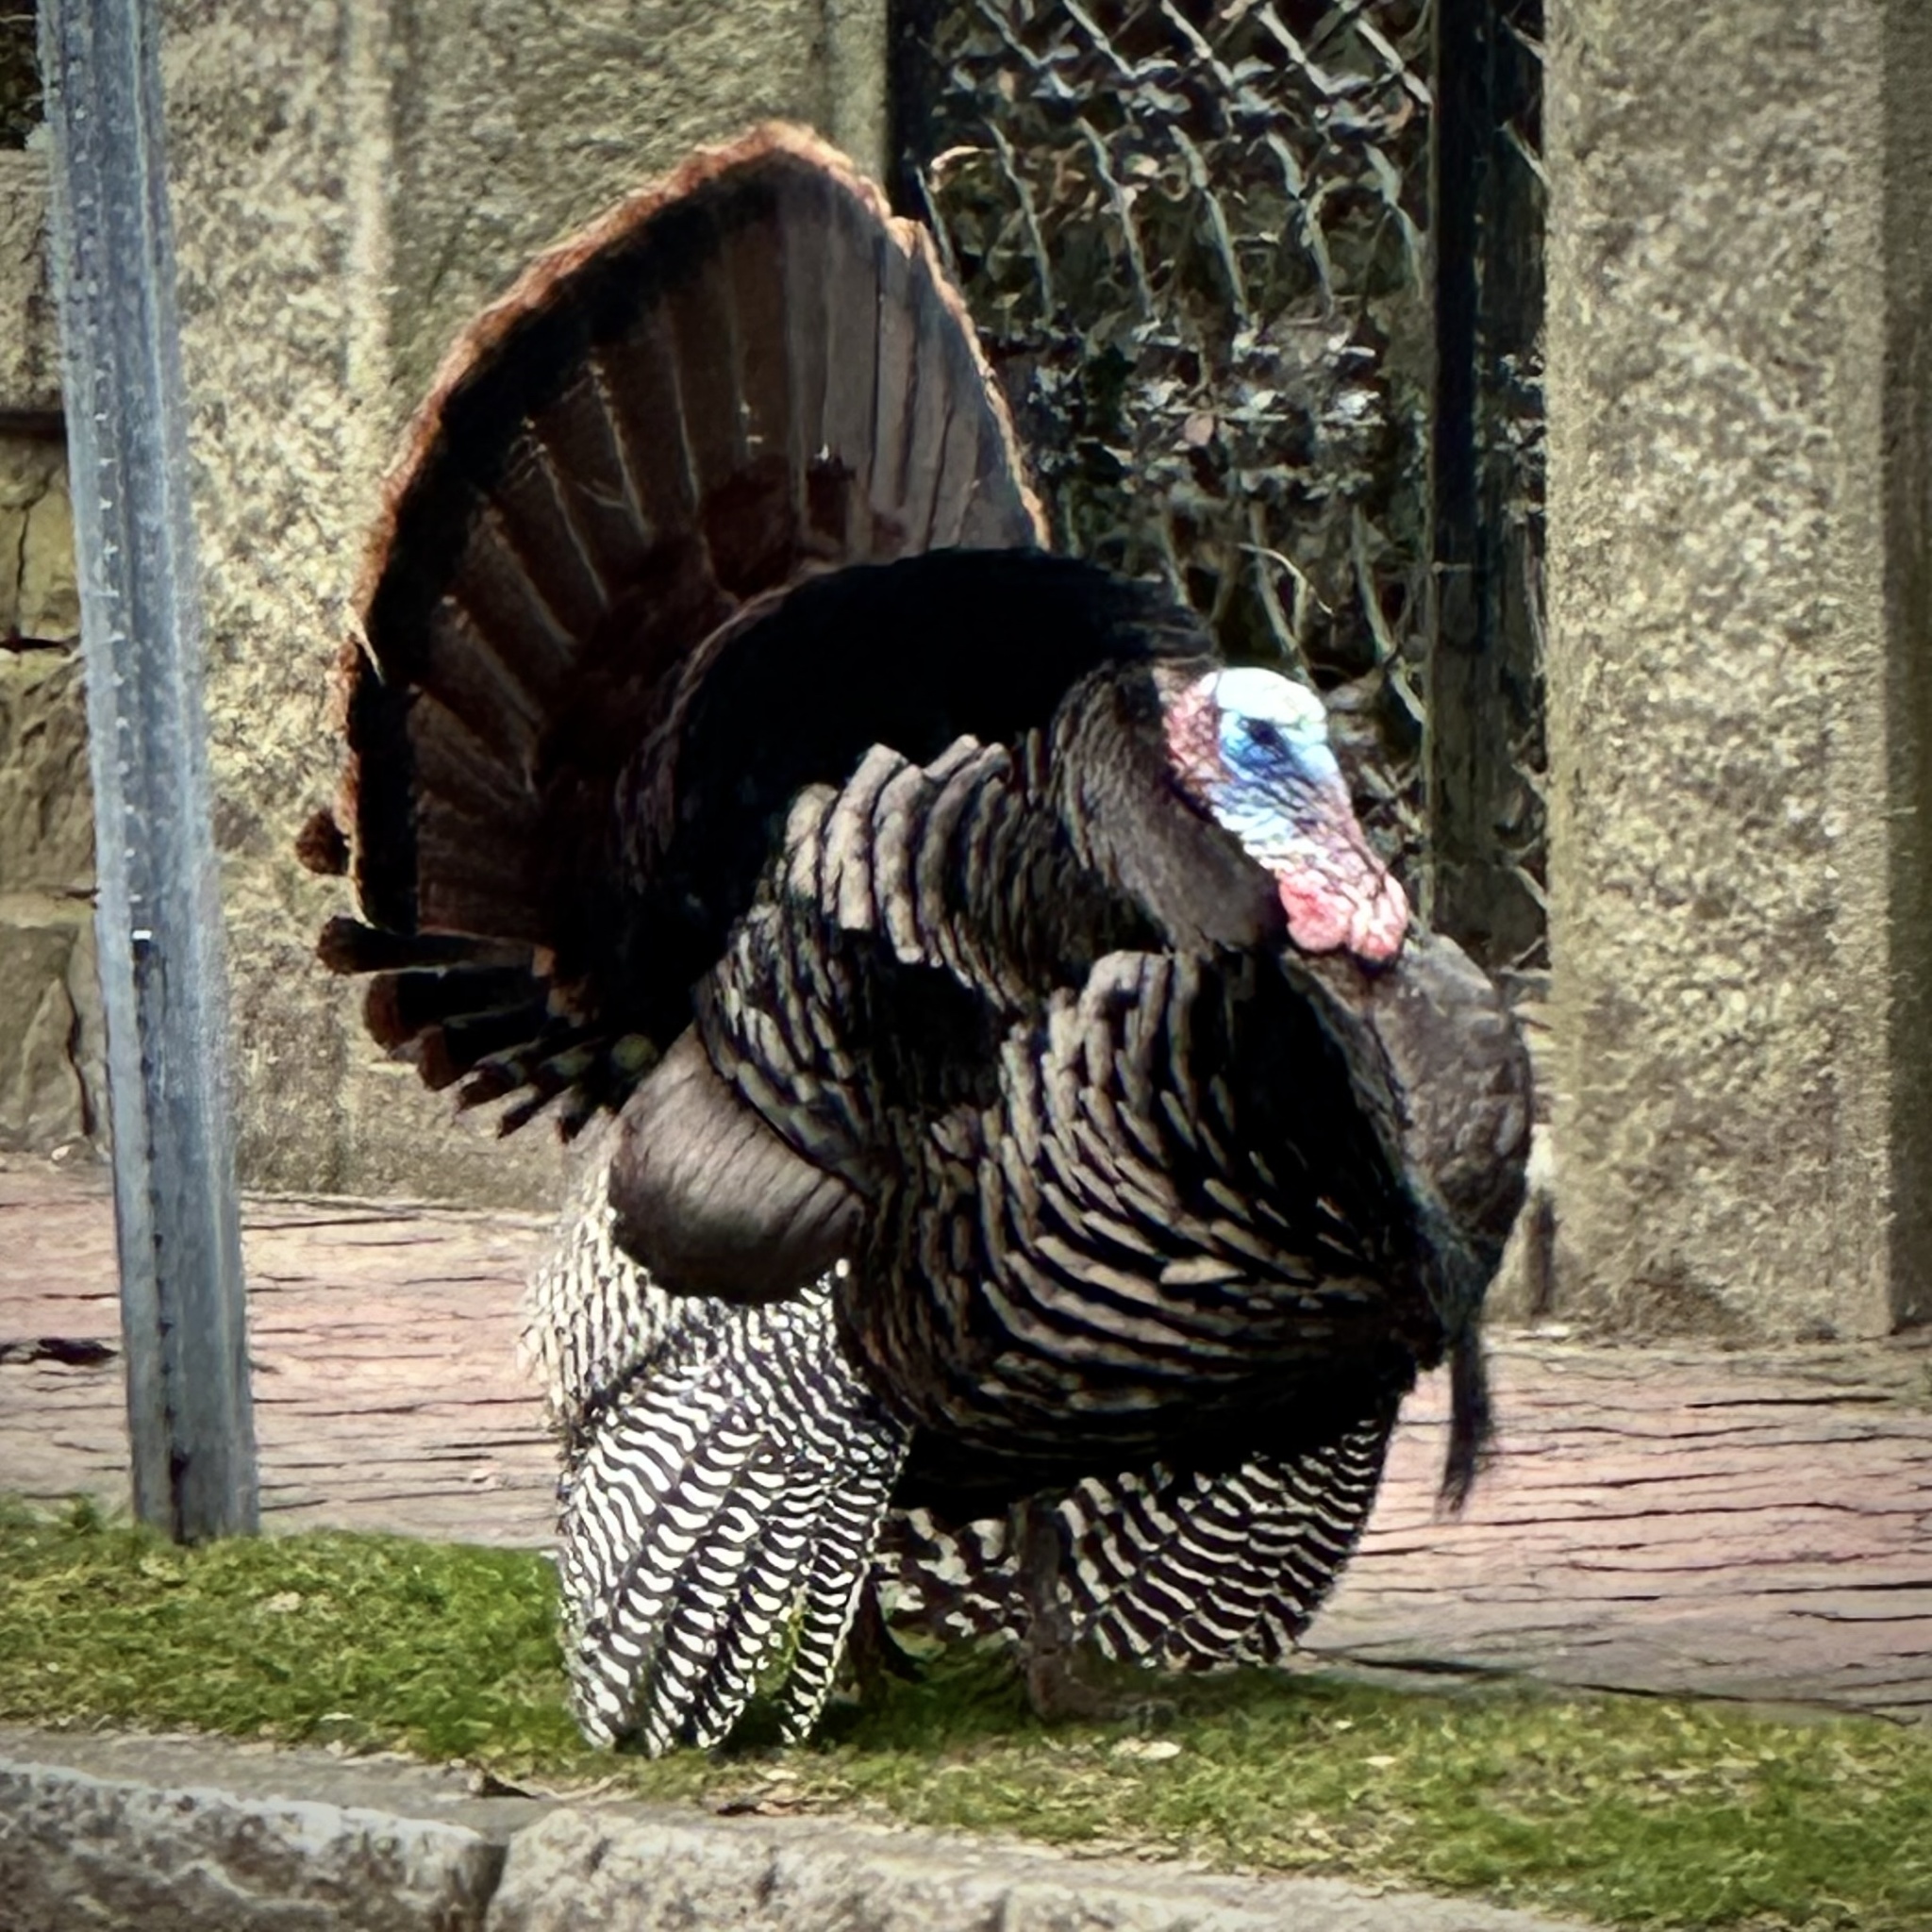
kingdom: Animalia
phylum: Chordata
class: Aves
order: Galliformes
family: Phasianidae
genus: Meleagris
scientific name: Meleagris gallopavo
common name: Wild turkey
